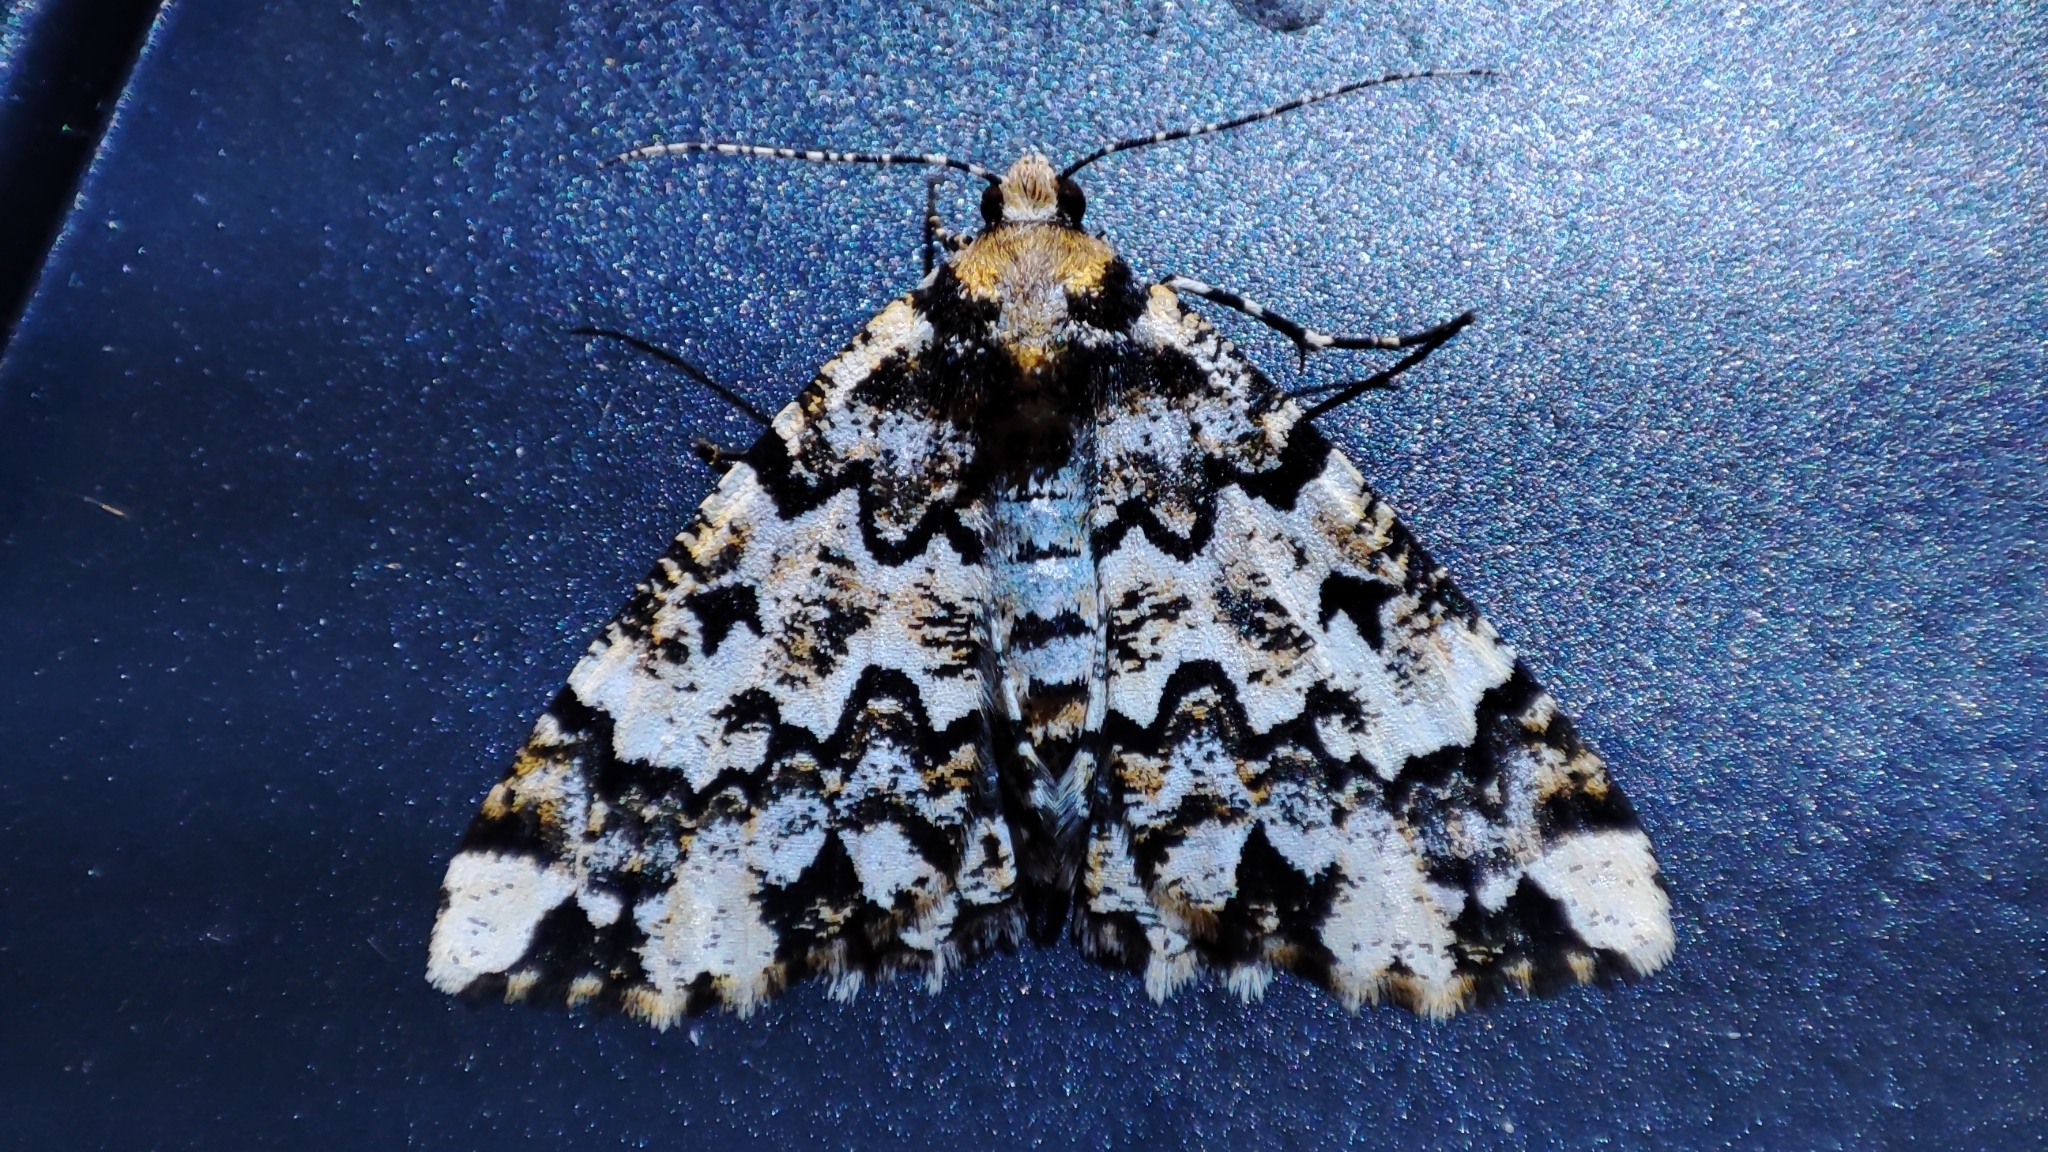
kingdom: Animalia
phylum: Arthropoda
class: Insecta
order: Lepidoptera
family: Geometridae
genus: Oedicentra
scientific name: Oedicentra albipennis
